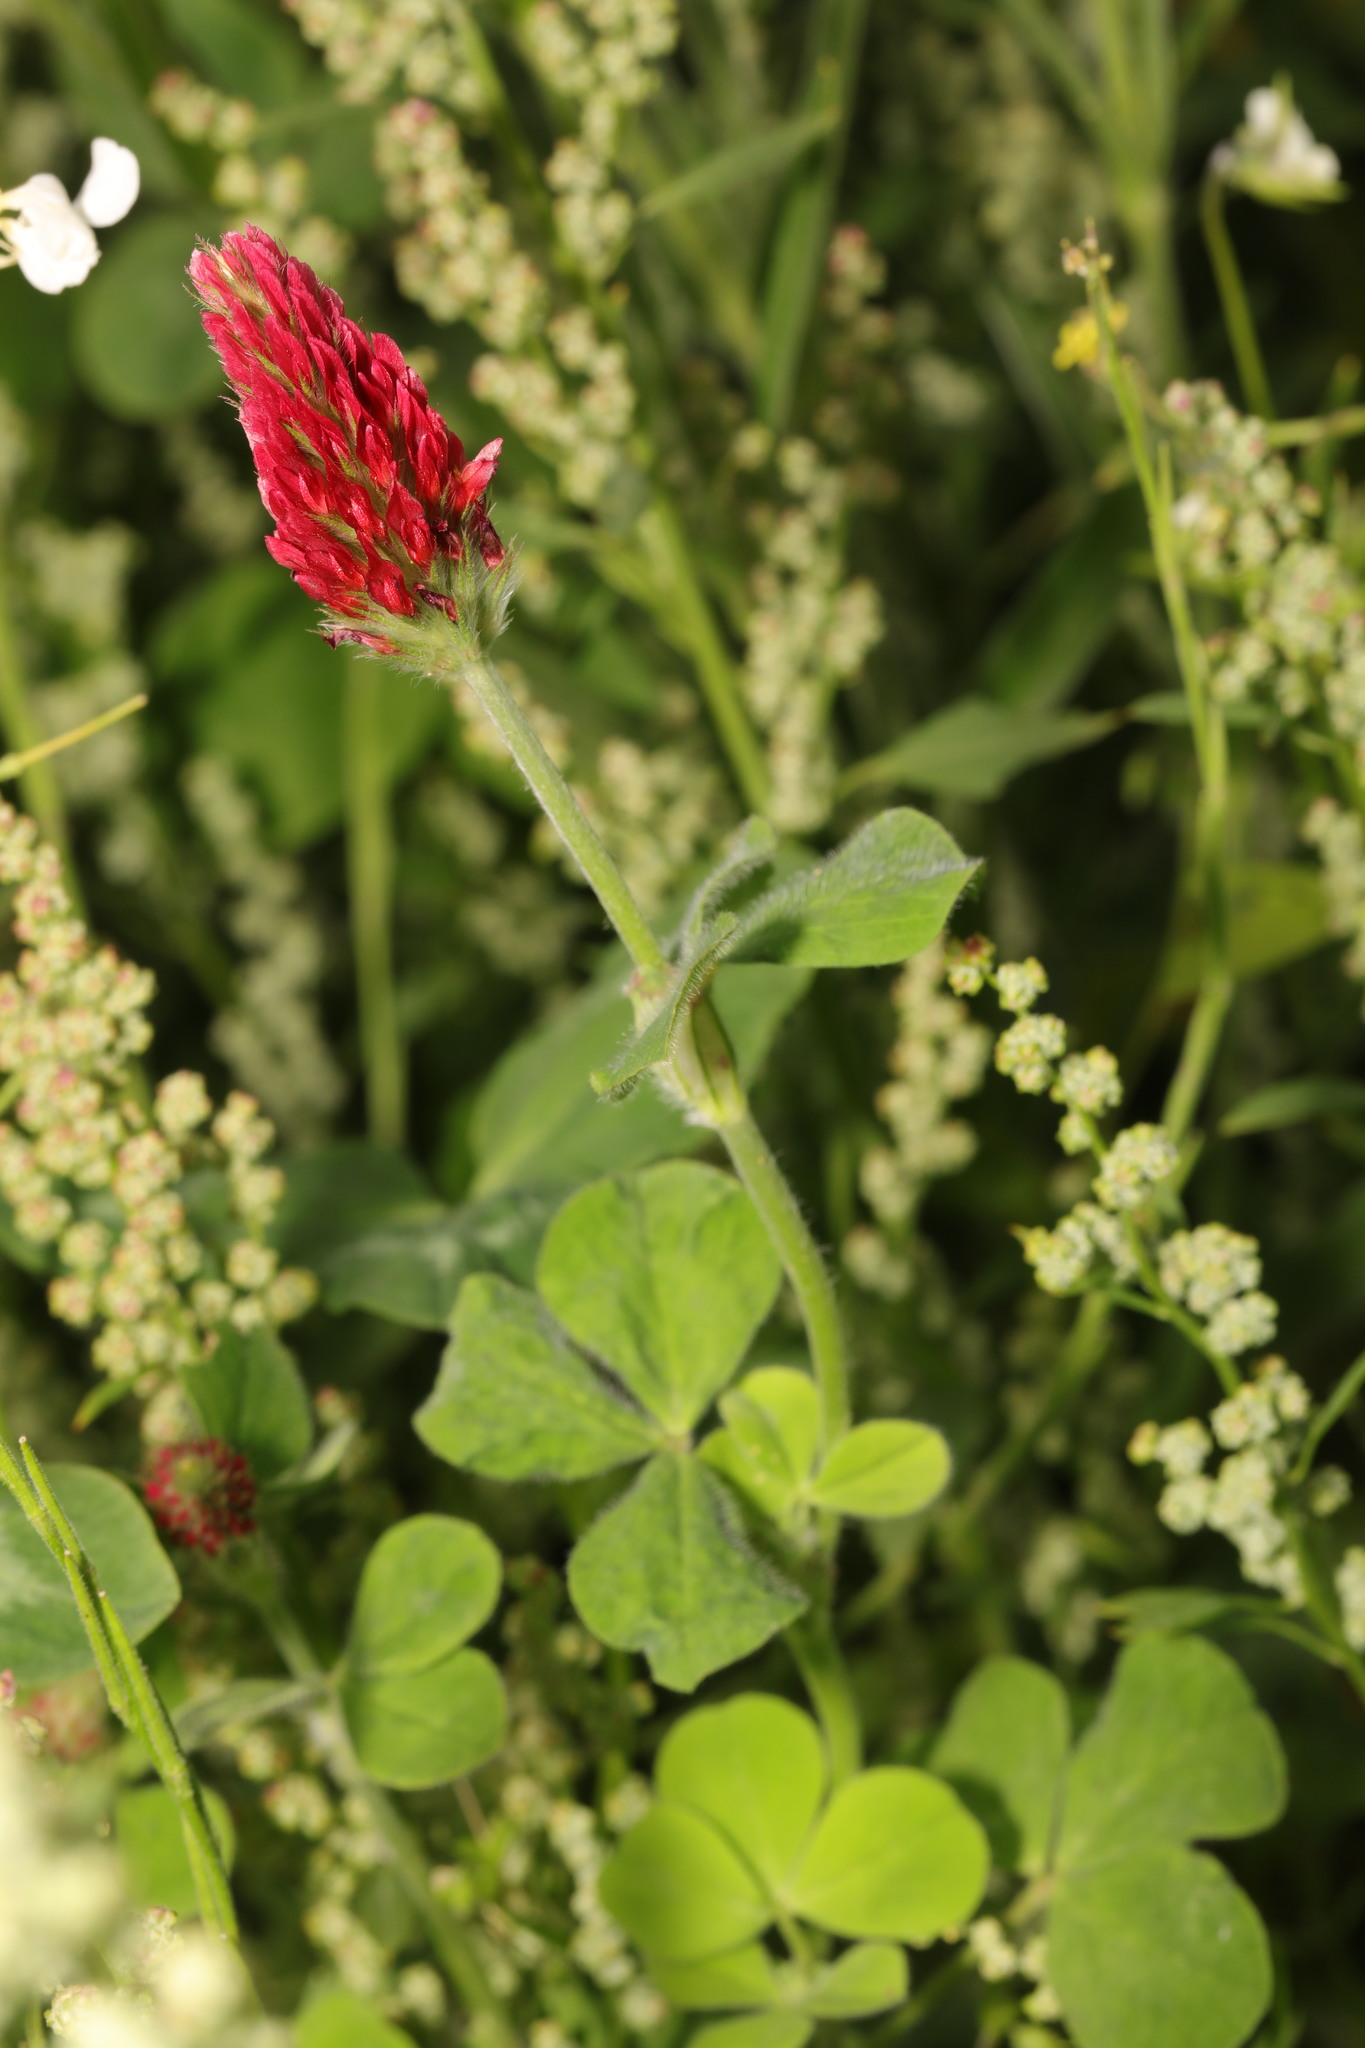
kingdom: Plantae
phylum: Tracheophyta
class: Magnoliopsida
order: Fabales
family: Fabaceae
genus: Trifolium
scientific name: Trifolium incarnatum
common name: Crimson clover
